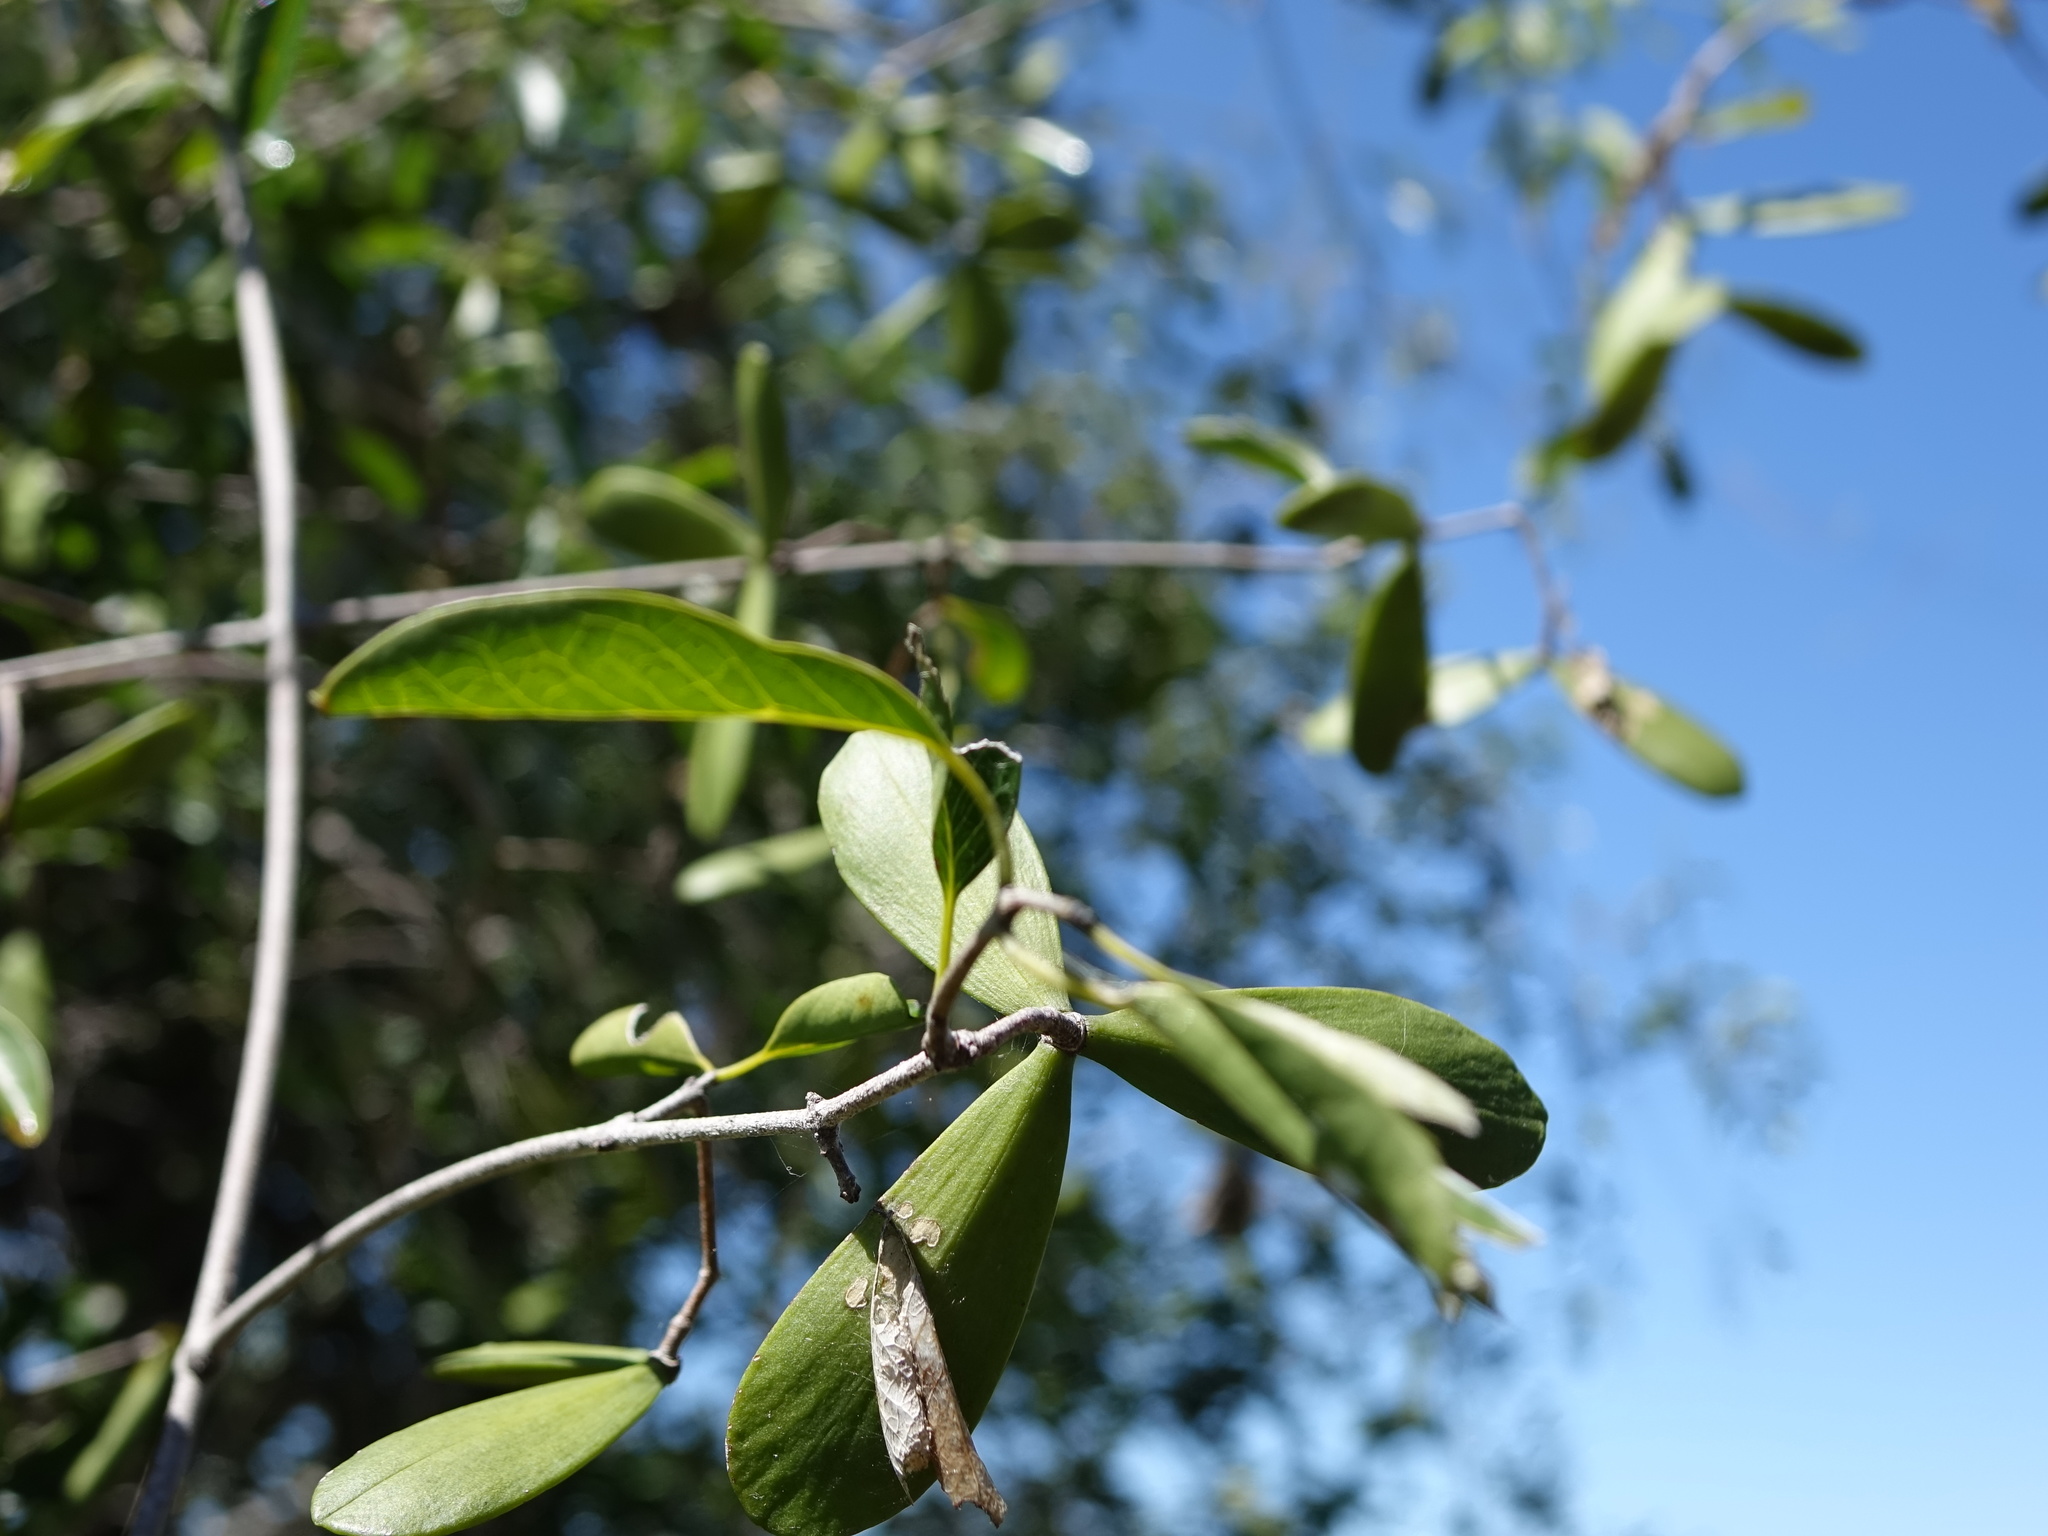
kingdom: Plantae
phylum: Tracheophyta
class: Magnoliopsida
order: Celastrales
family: Celastraceae
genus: Loeseneriella
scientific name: Loeseneriella urceolus
